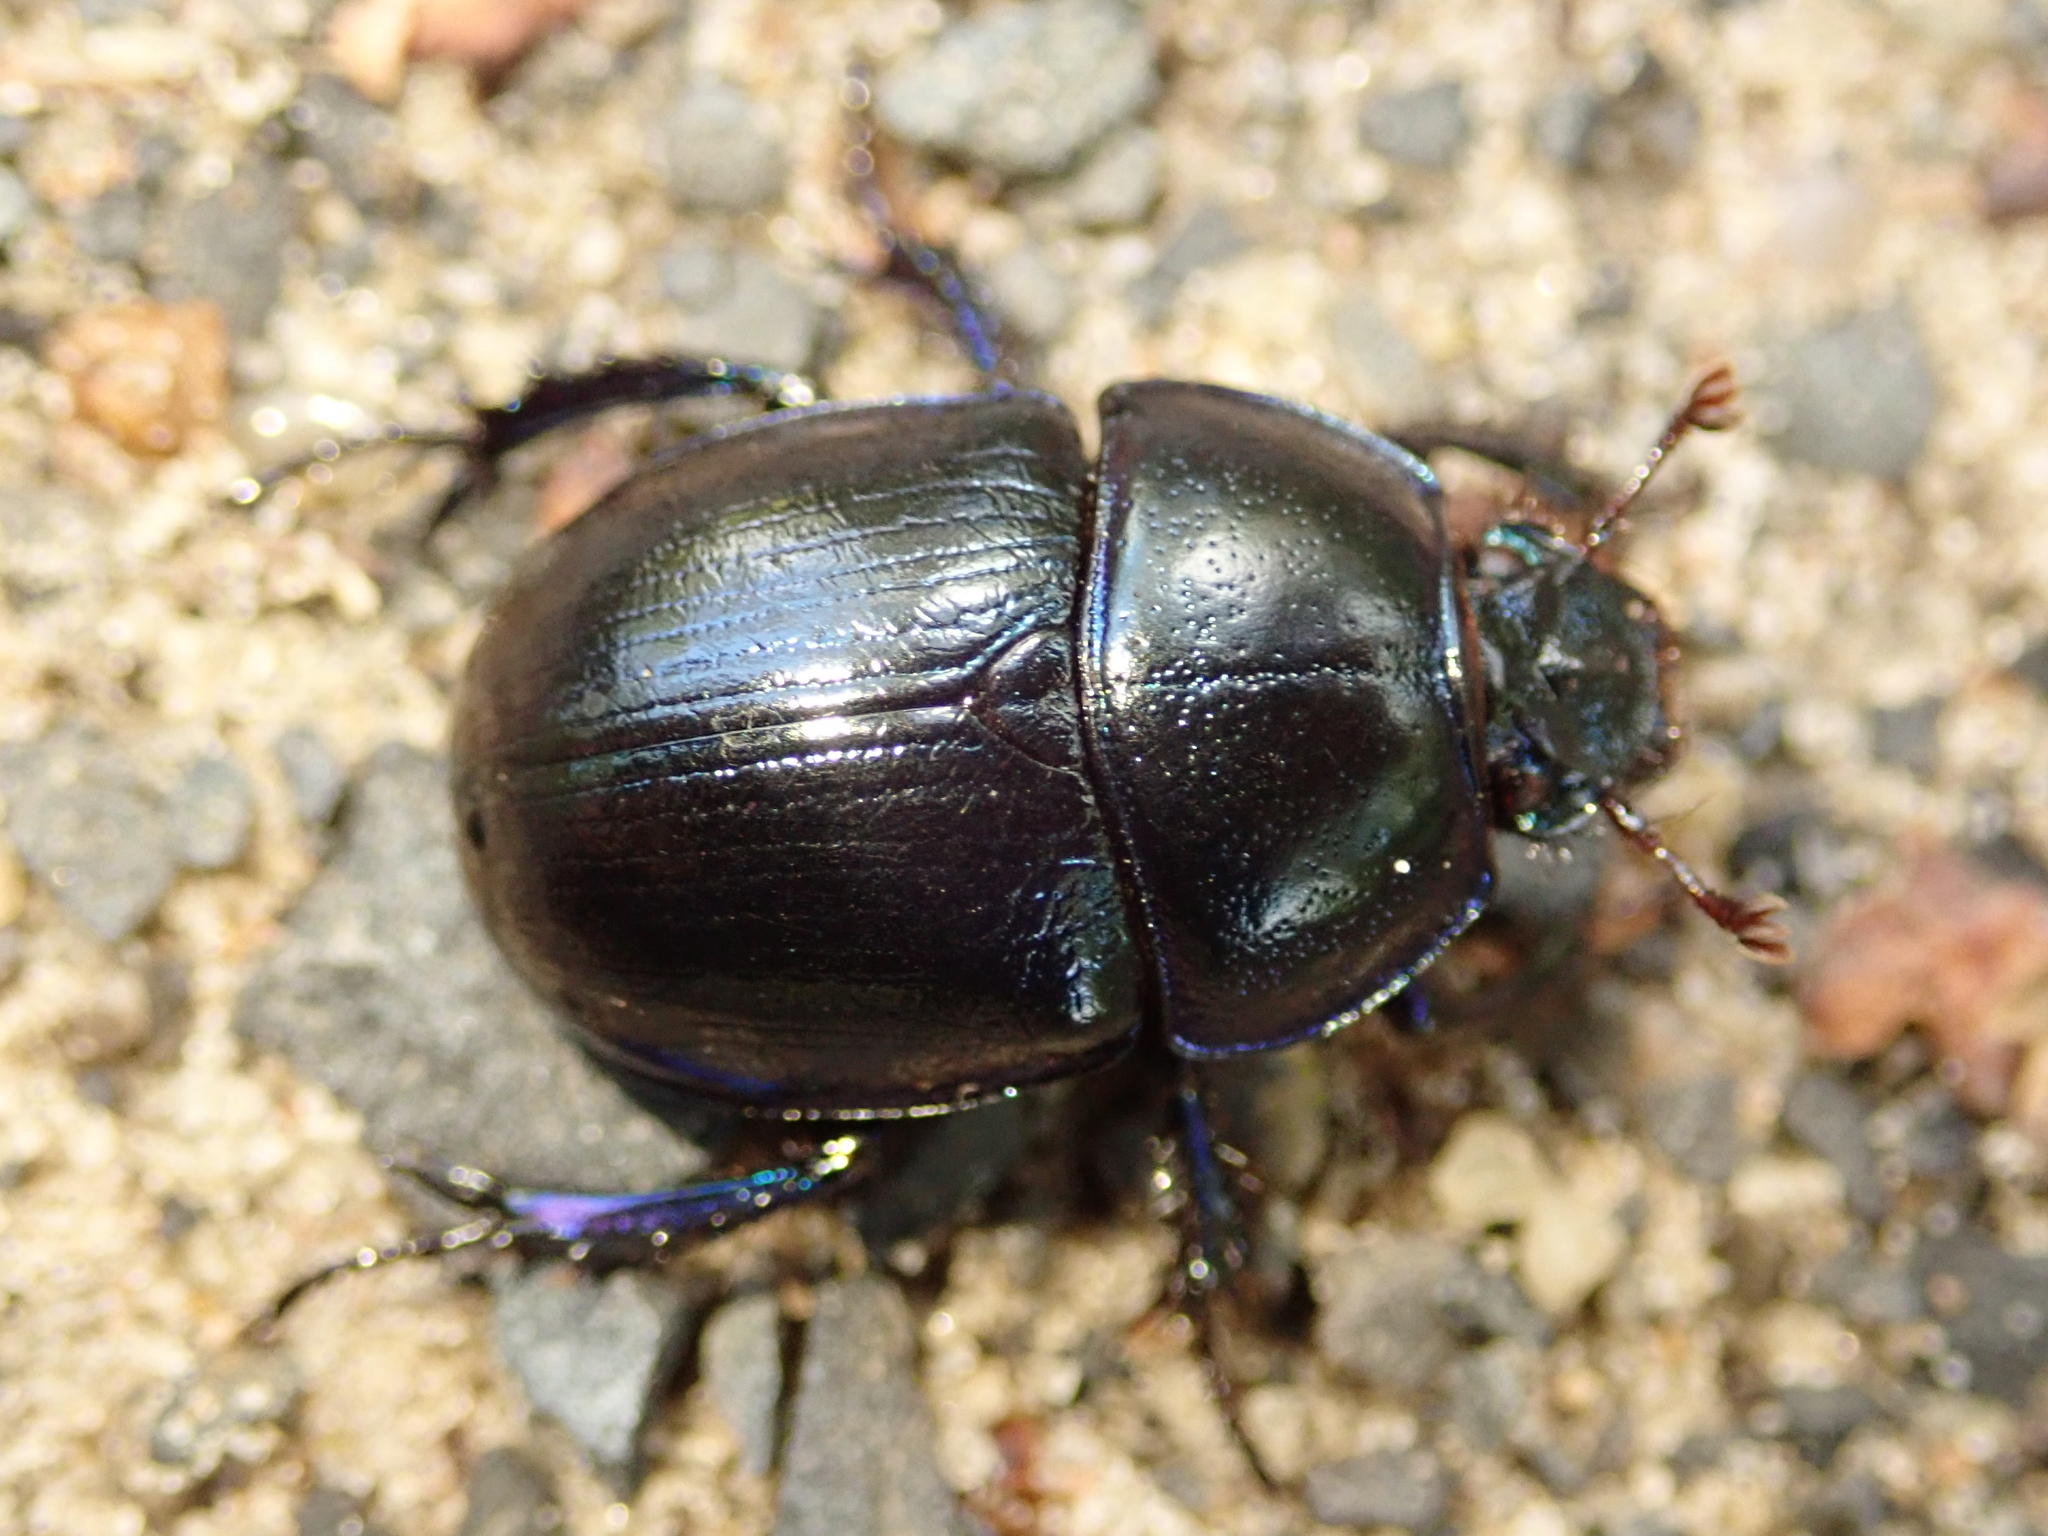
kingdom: Animalia
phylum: Arthropoda
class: Insecta
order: Coleoptera
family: Geotrupidae
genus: Anoplotrupes
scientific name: Anoplotrupes stercorosus
